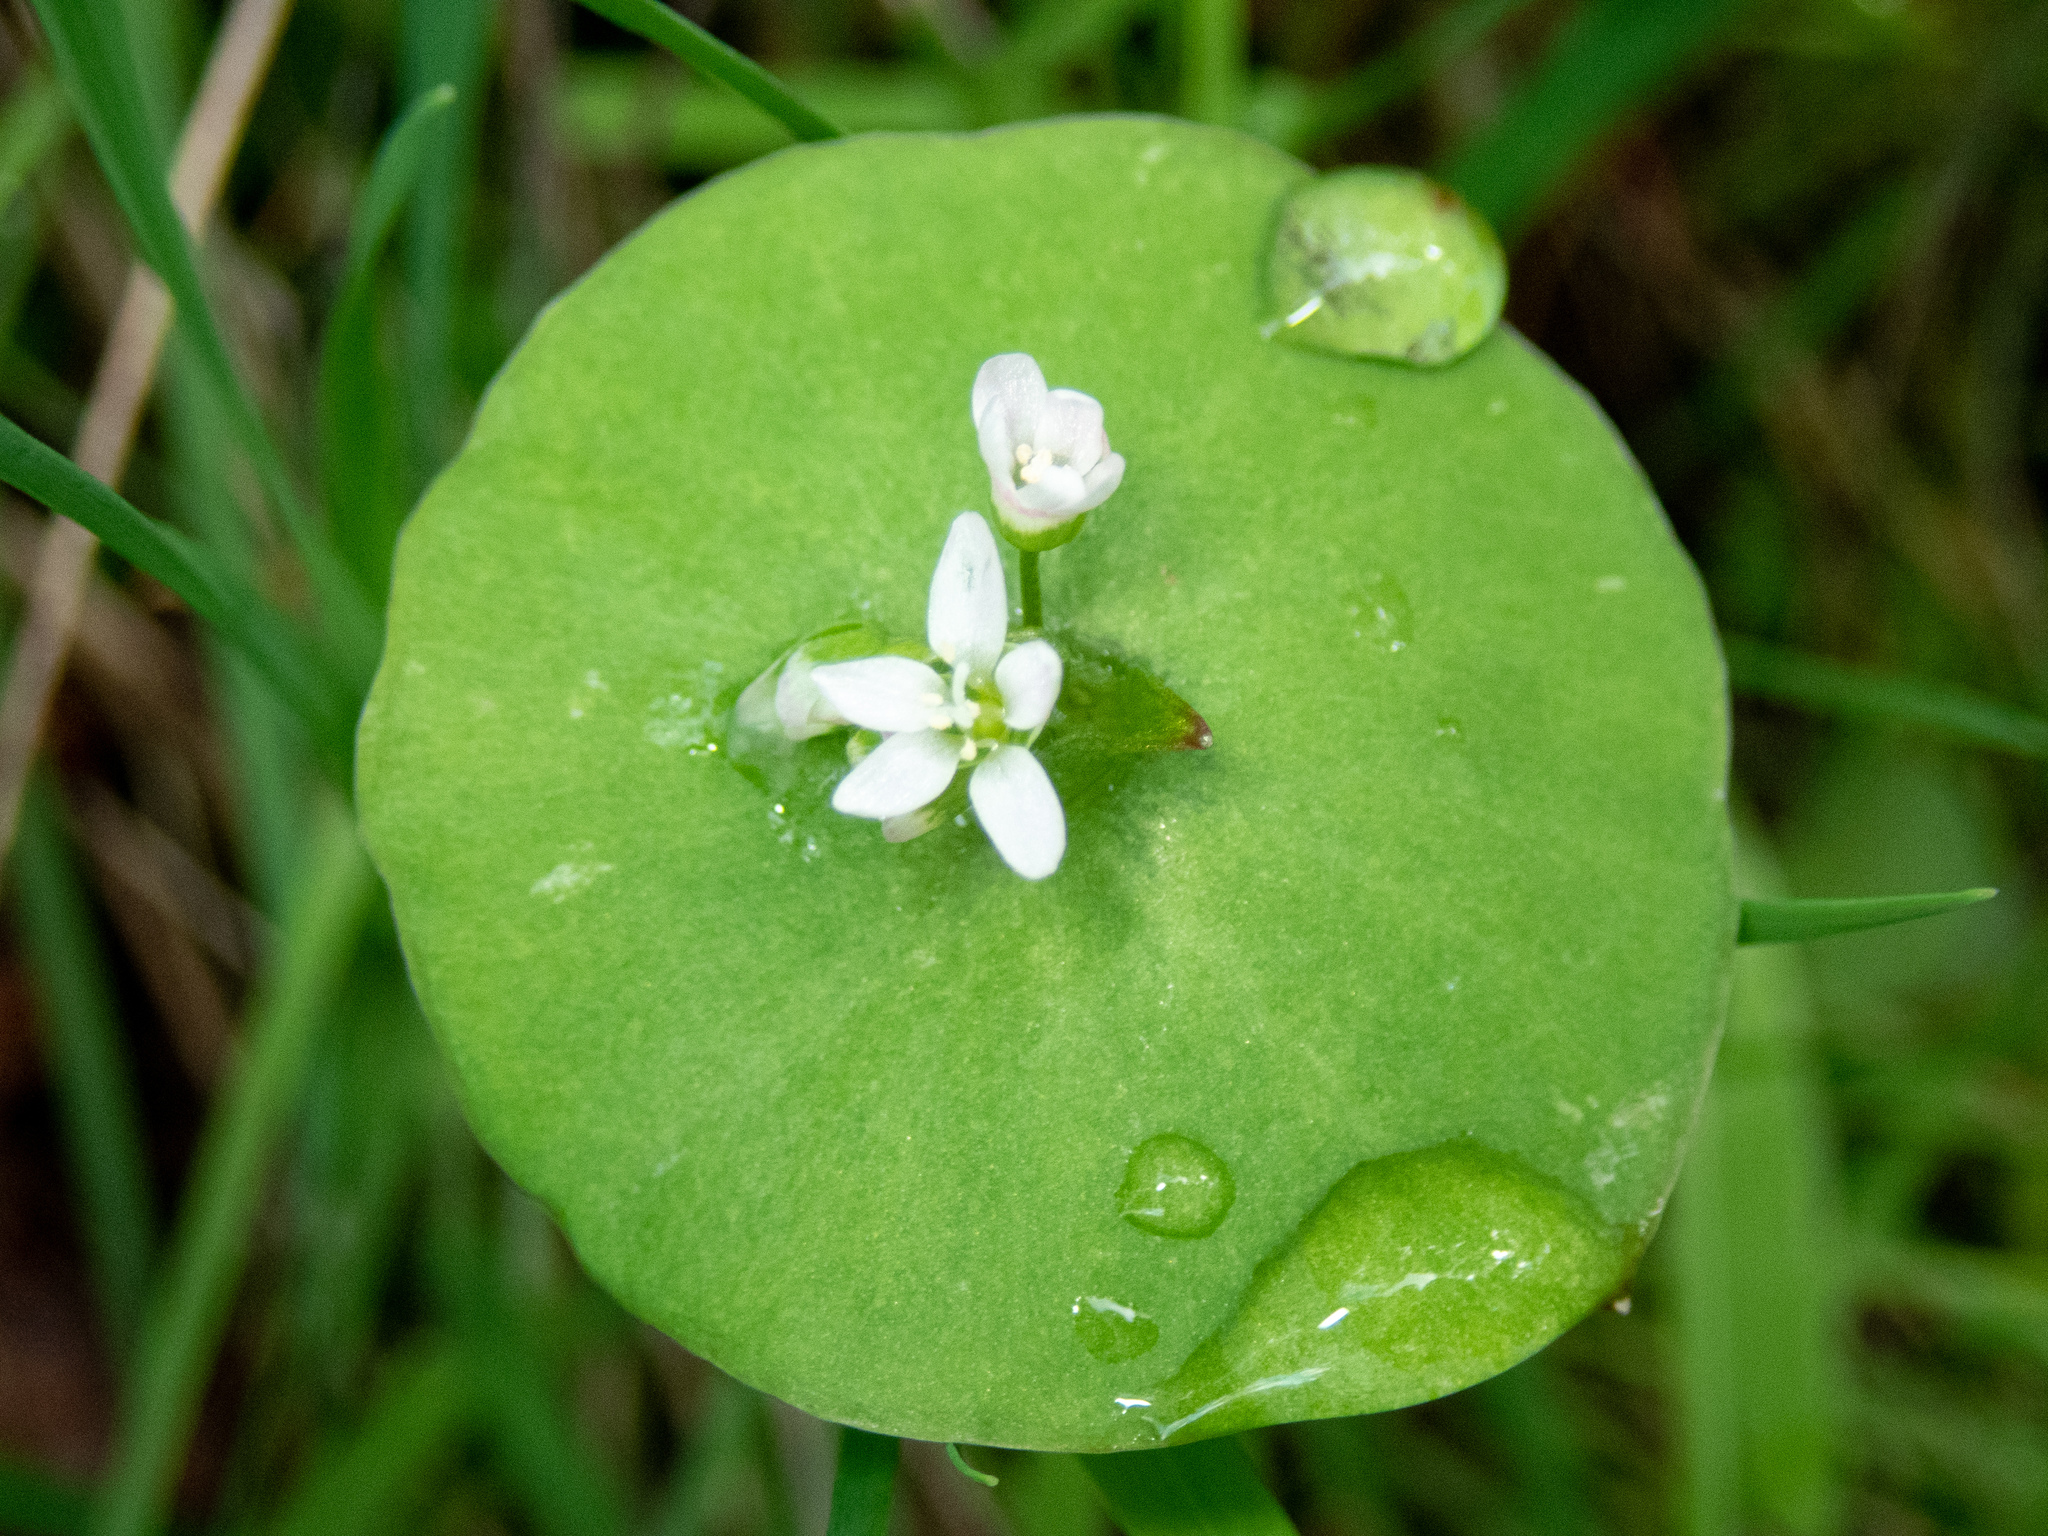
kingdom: Plantae
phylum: Tracheophyta
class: Magnoliopsida
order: Caryophyllales
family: Montiaceae
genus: Claytonia
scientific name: Claytonia perfoliata
